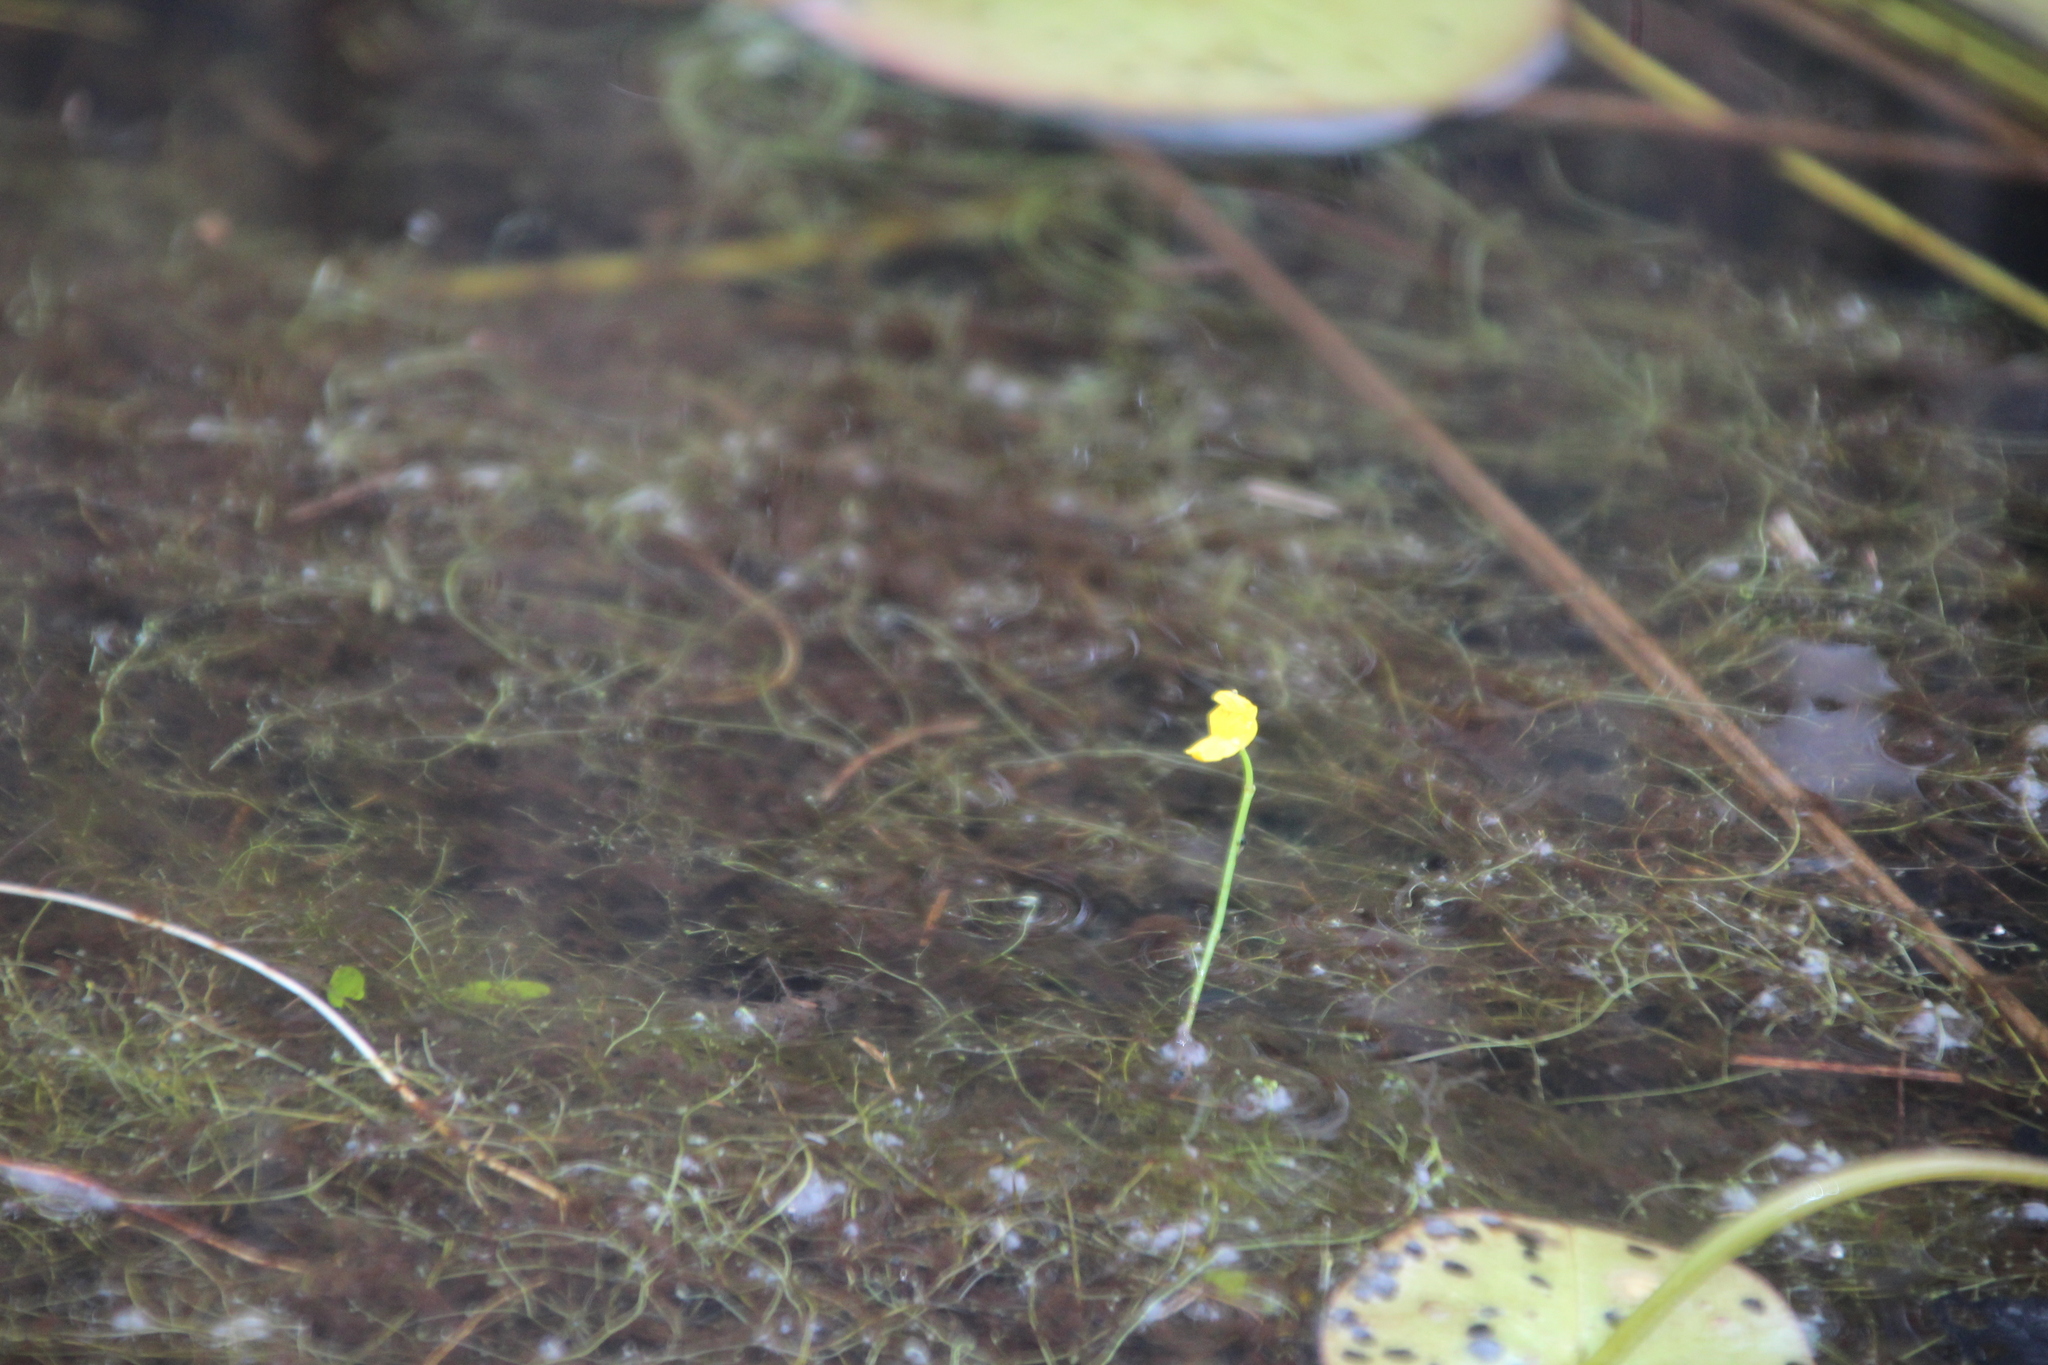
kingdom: Plantae
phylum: Tracheophyta
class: Magnoliopsida
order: Lamiales
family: Lentibulariaceae
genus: Utricularia
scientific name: Utricularia gibba
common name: Humped bladderwort
